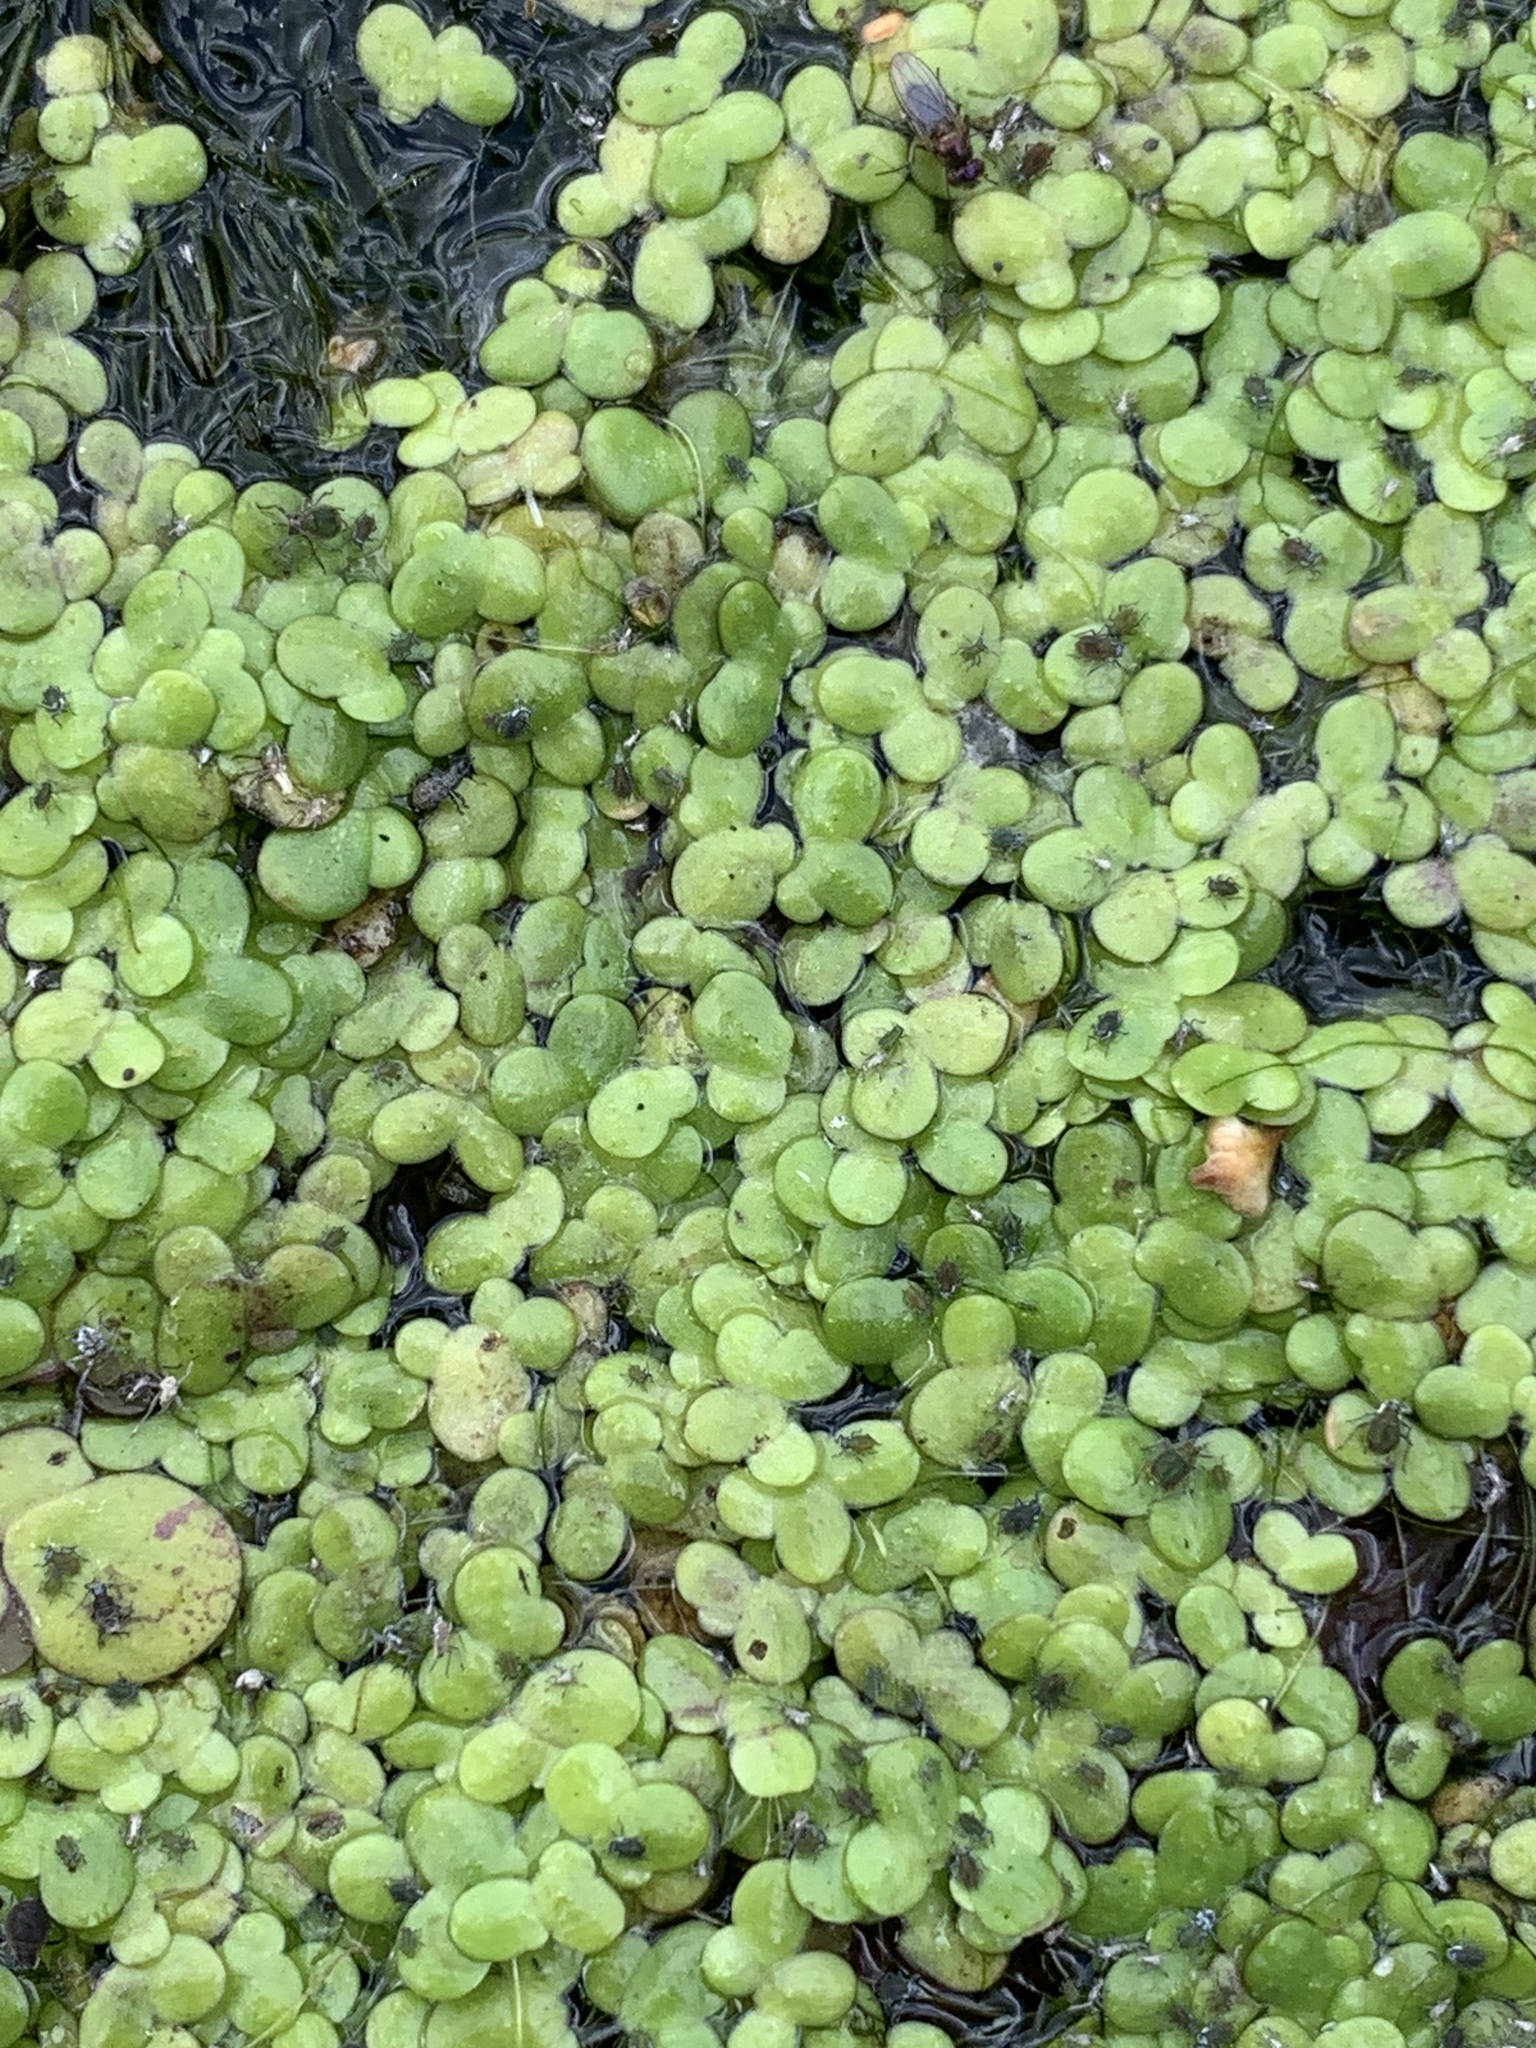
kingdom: Plantae
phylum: Tracheophyta
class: Liliopsida
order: Alismatales
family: Araceae
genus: Lemna
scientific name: Lemna turionifera
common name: Perennial duckweed
